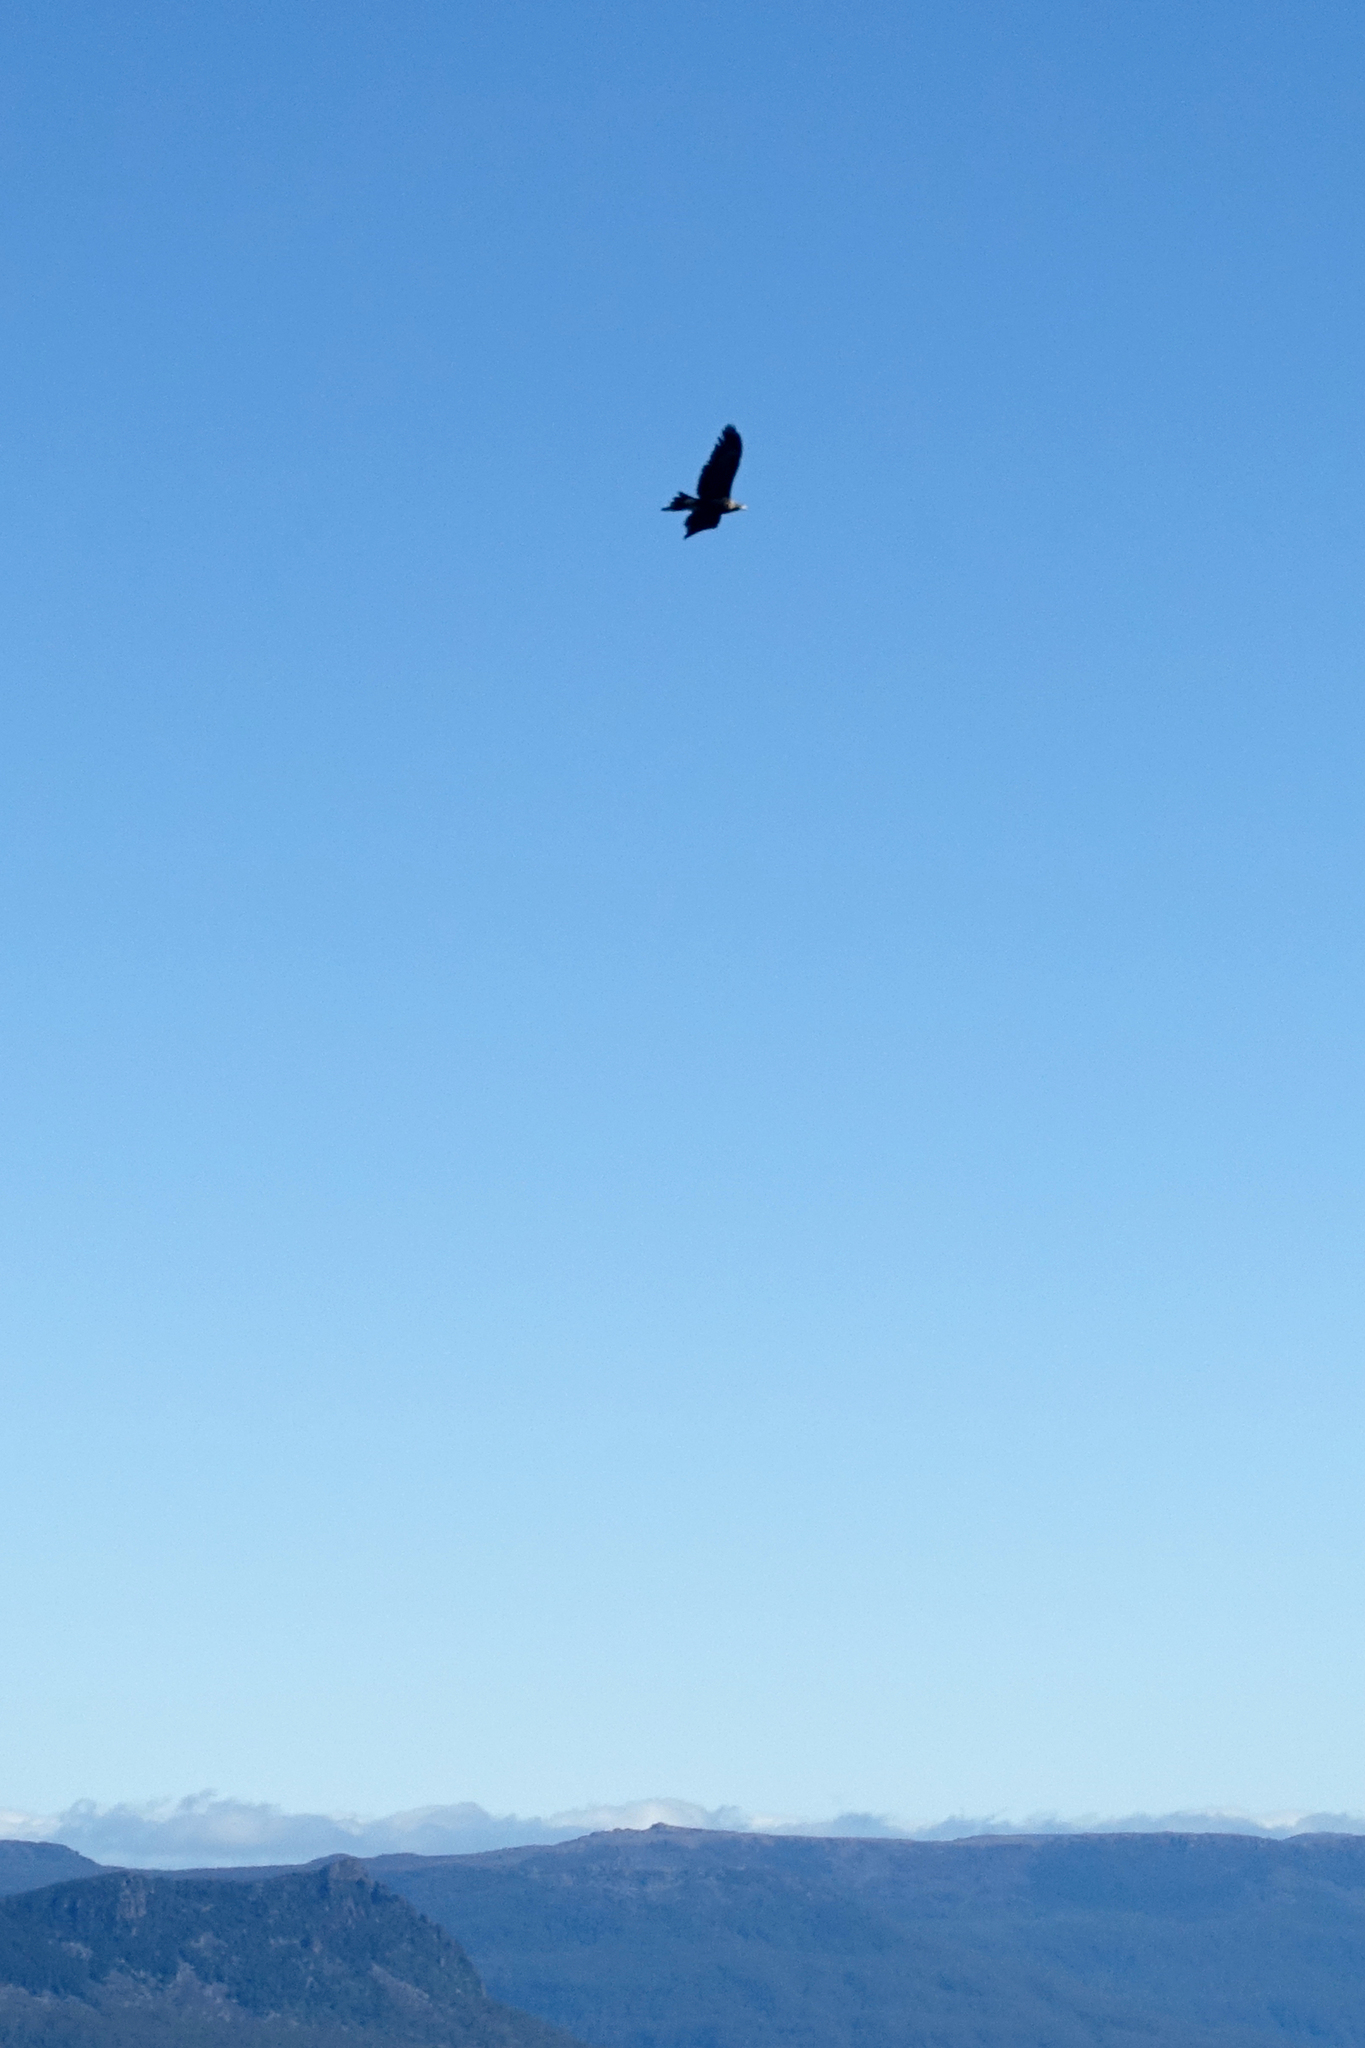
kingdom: Animalia
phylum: Chordata
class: Aves
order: Accipitriformes
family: Accipitridae
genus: Aquila
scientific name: Aquila audax
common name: Wedge-tailed eagle
